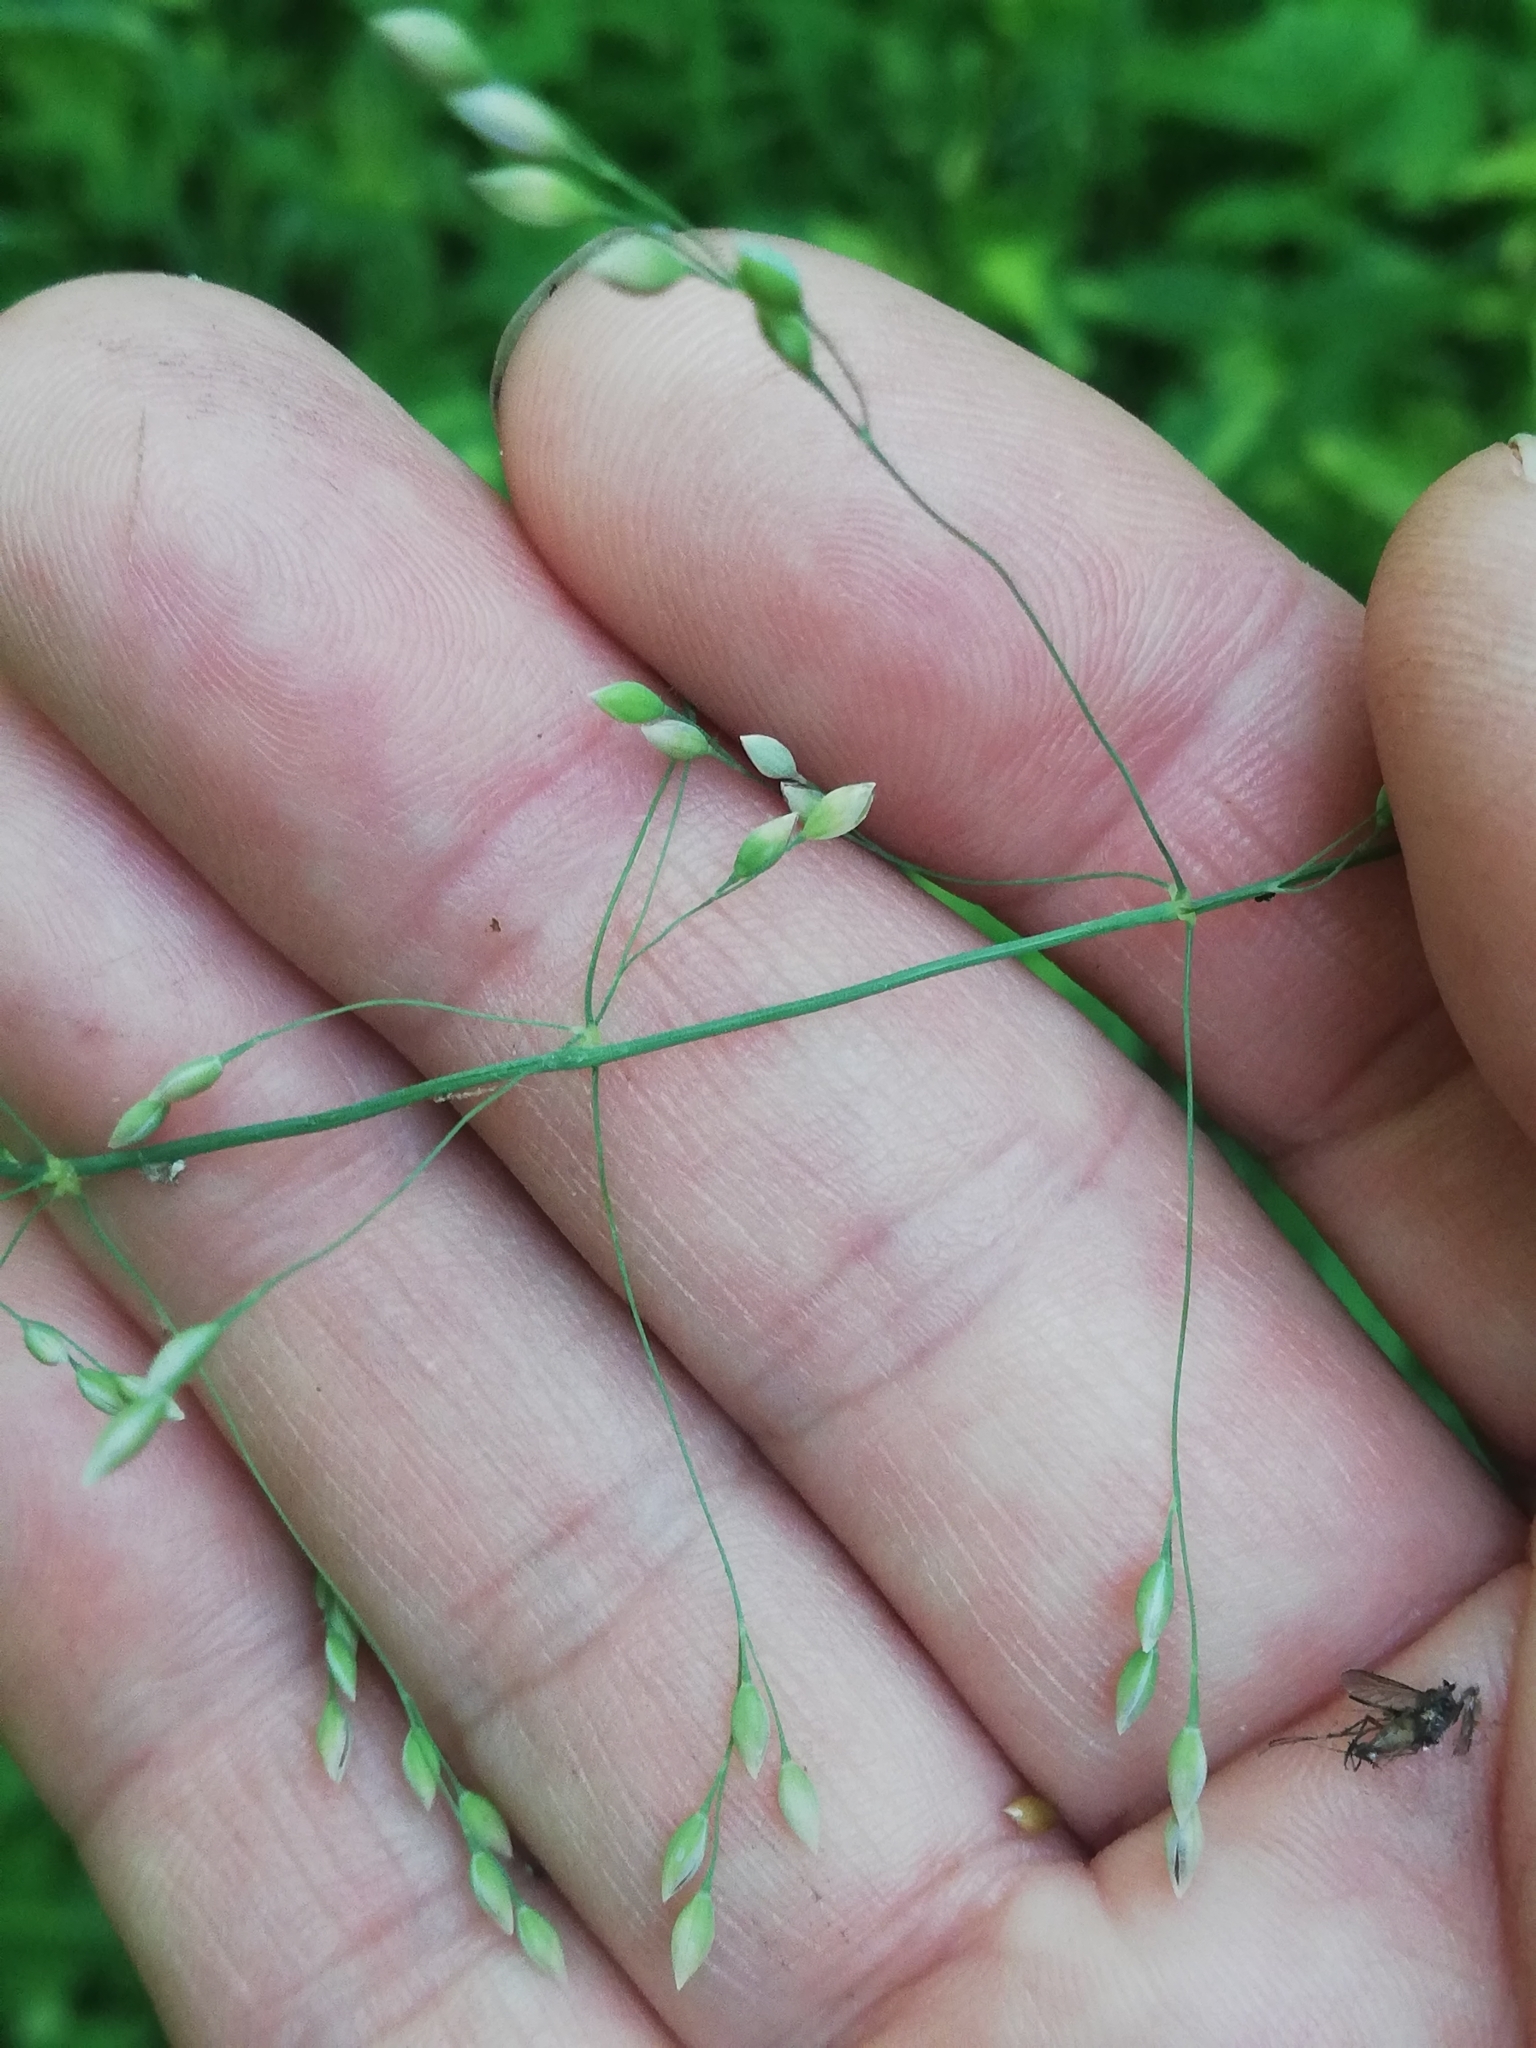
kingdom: Plantae
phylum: Tracheophyta
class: Liliopsida
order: Poales
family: Poaceae
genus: Milium
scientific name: Milium effusum
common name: Wood millet
